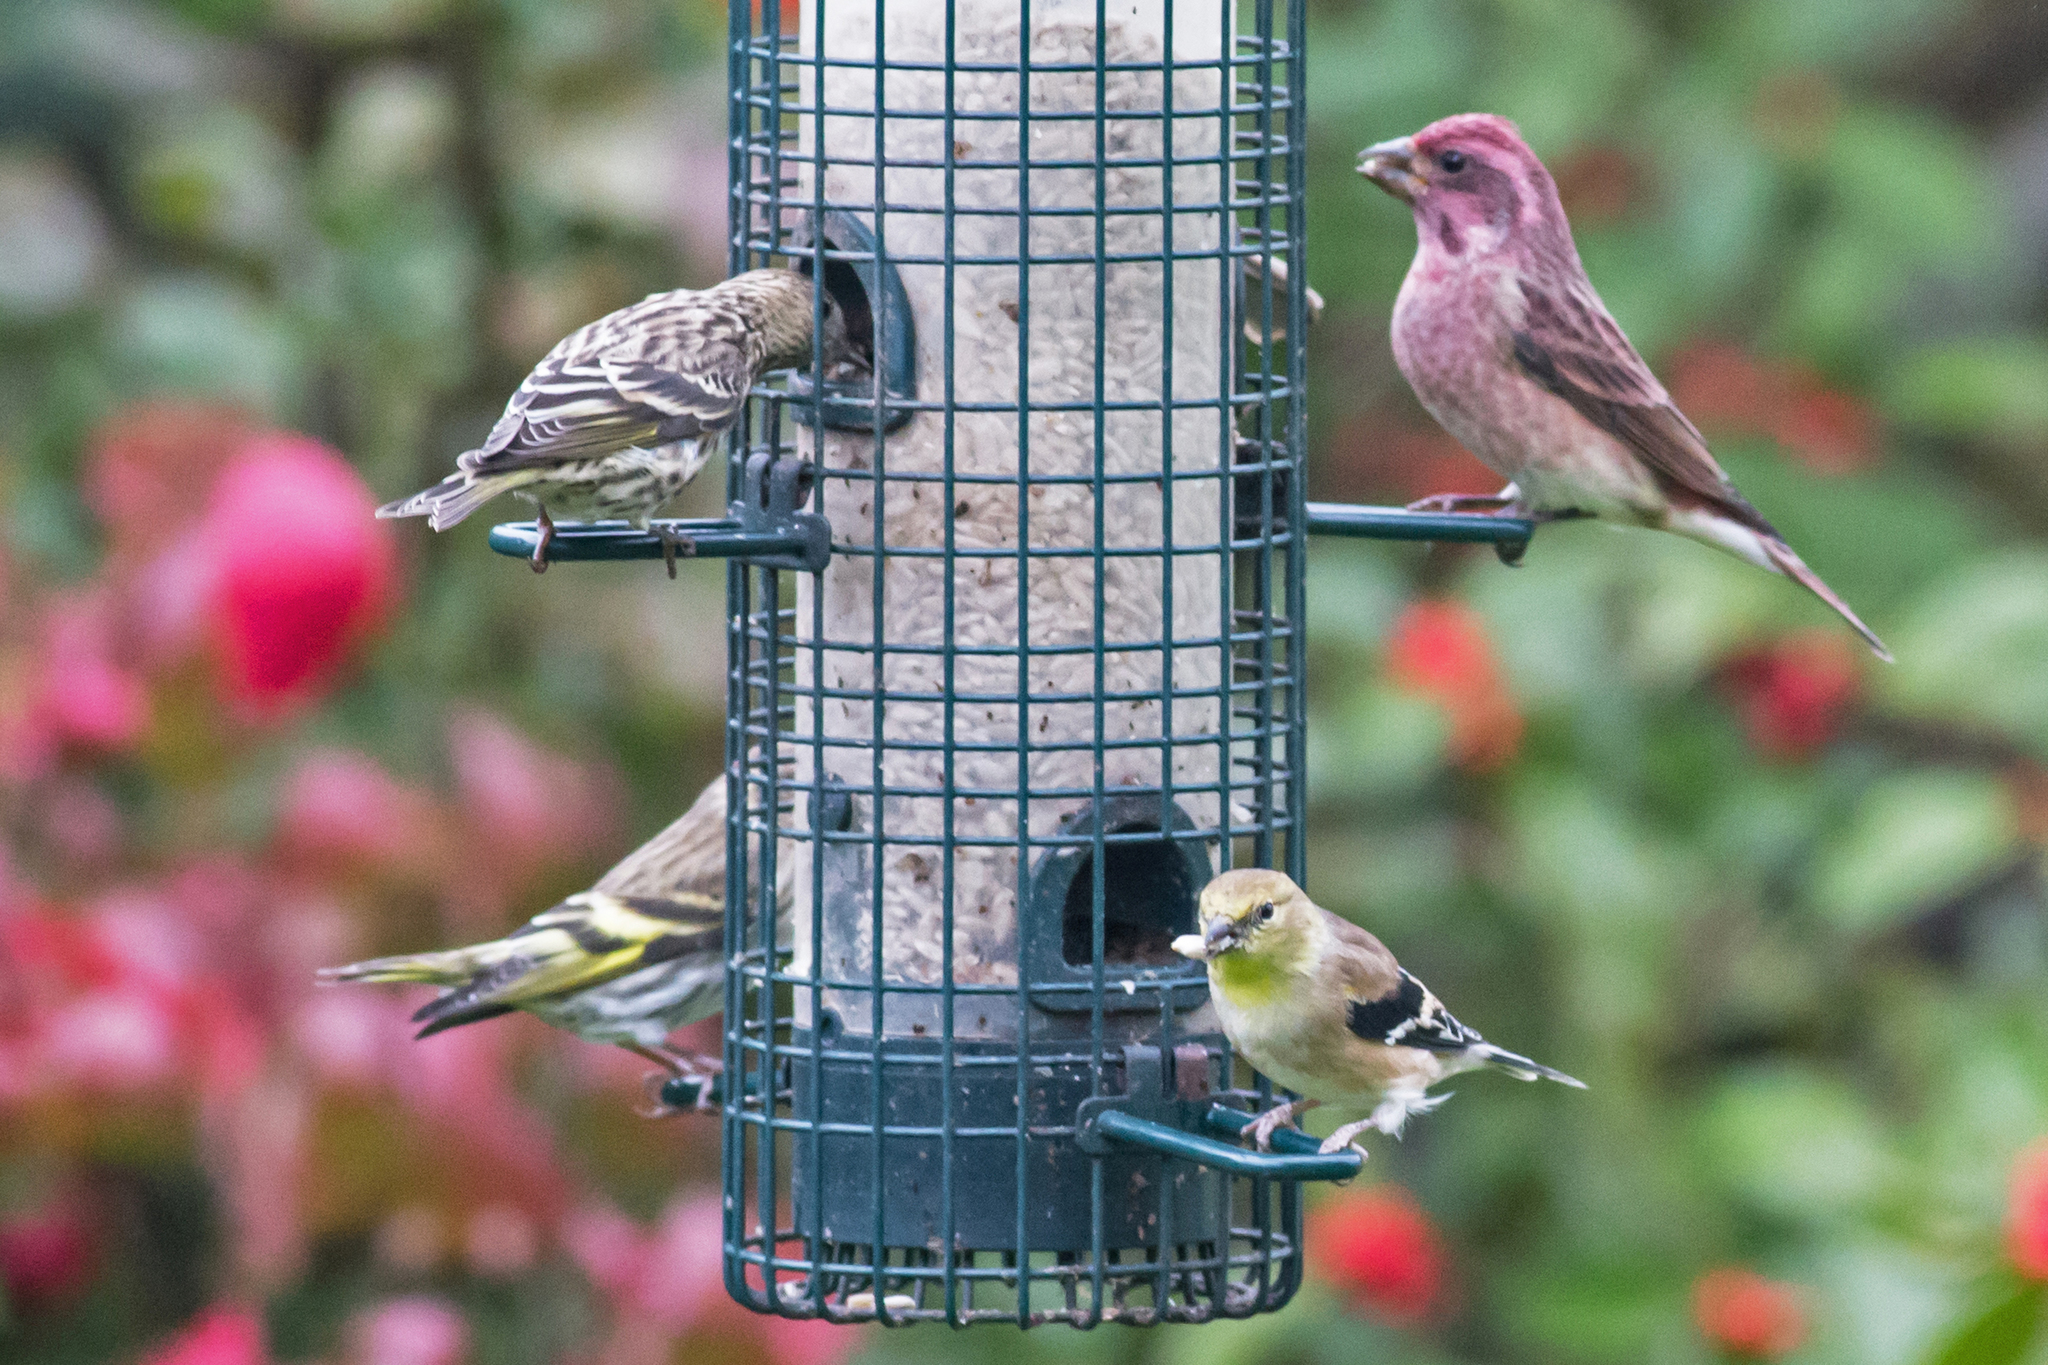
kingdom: Animalia
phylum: Chordata
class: Aves
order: Passeriformes
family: Fringillidae
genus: Spinus
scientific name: Spinus tristis
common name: American goldfinch
